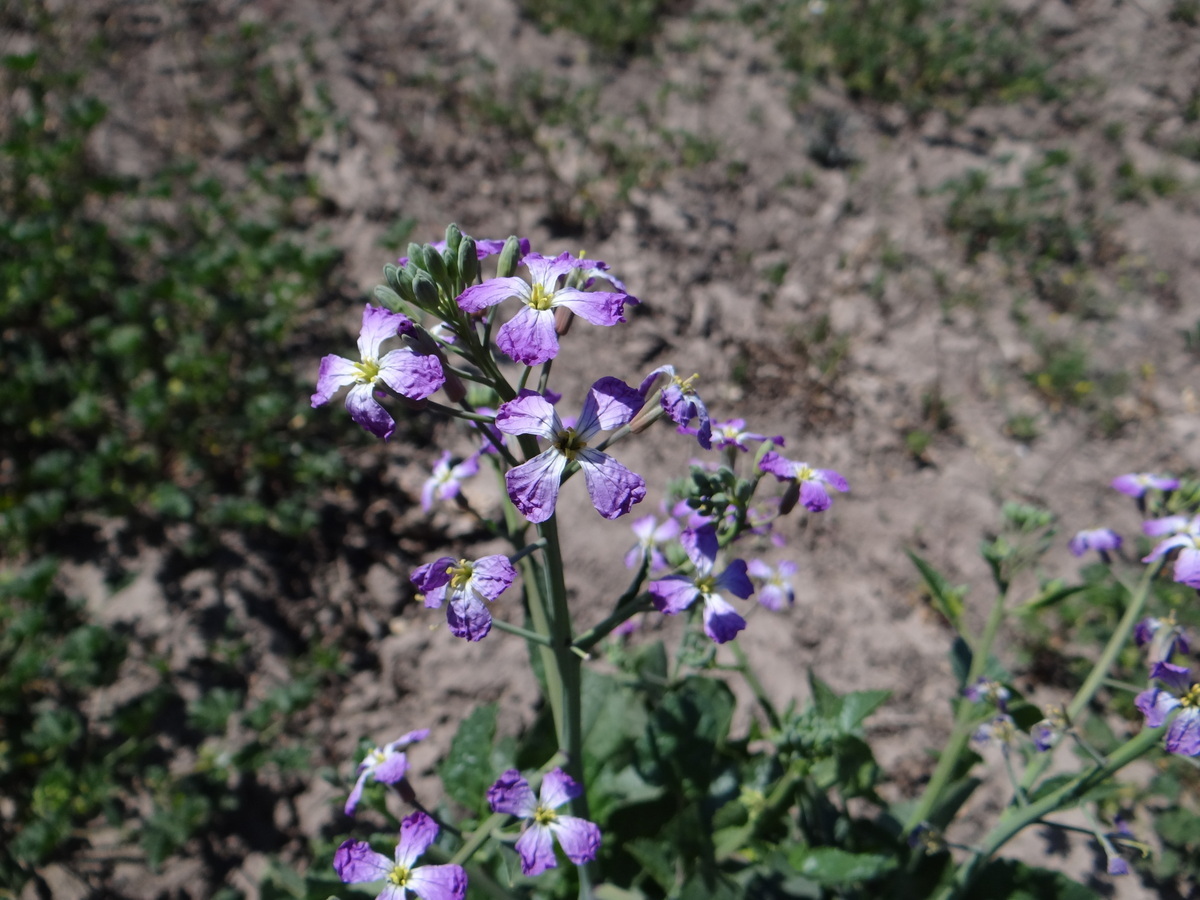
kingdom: Plantae
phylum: Tracheophyta
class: Magnoliopsida
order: Brassicales
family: Brassicaceae
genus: Raphanus
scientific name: Raphanus sativus
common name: Cultivated radish
